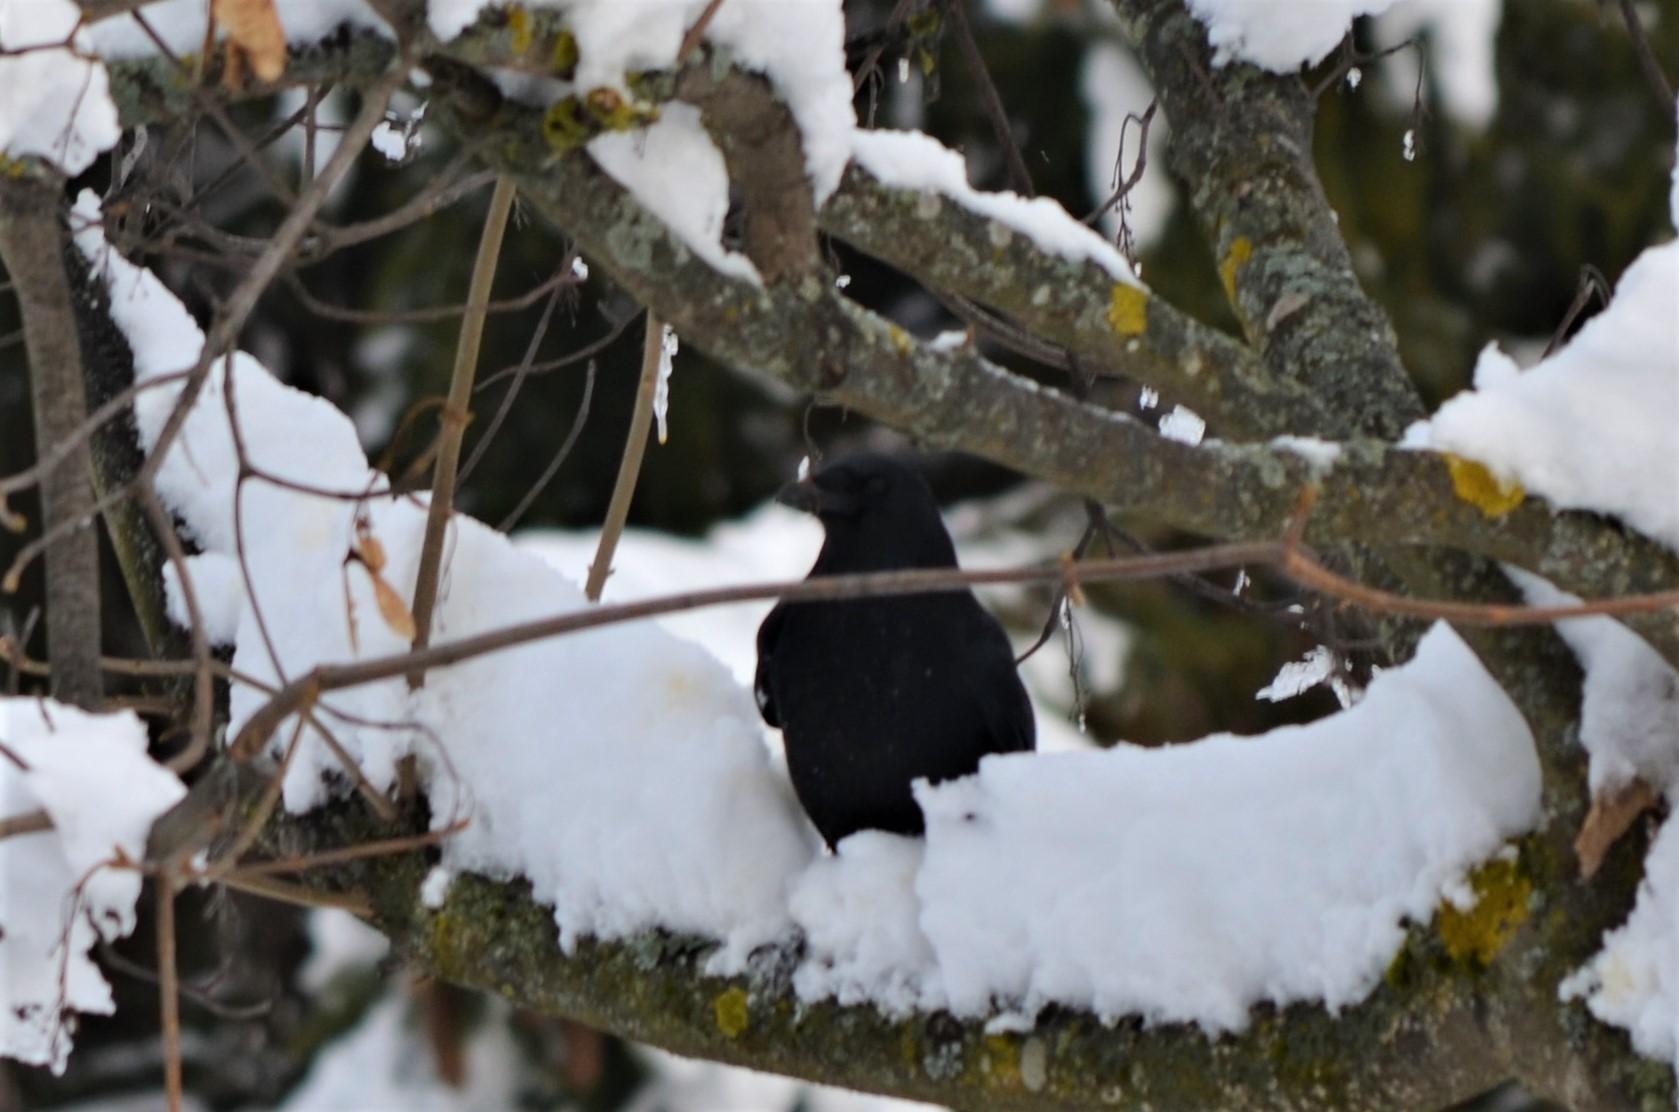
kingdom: Animalia
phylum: Chordata
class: Aves
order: Passeriformes
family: Corvidae
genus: Corvus
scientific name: Corvus corone
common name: Carrion crow
